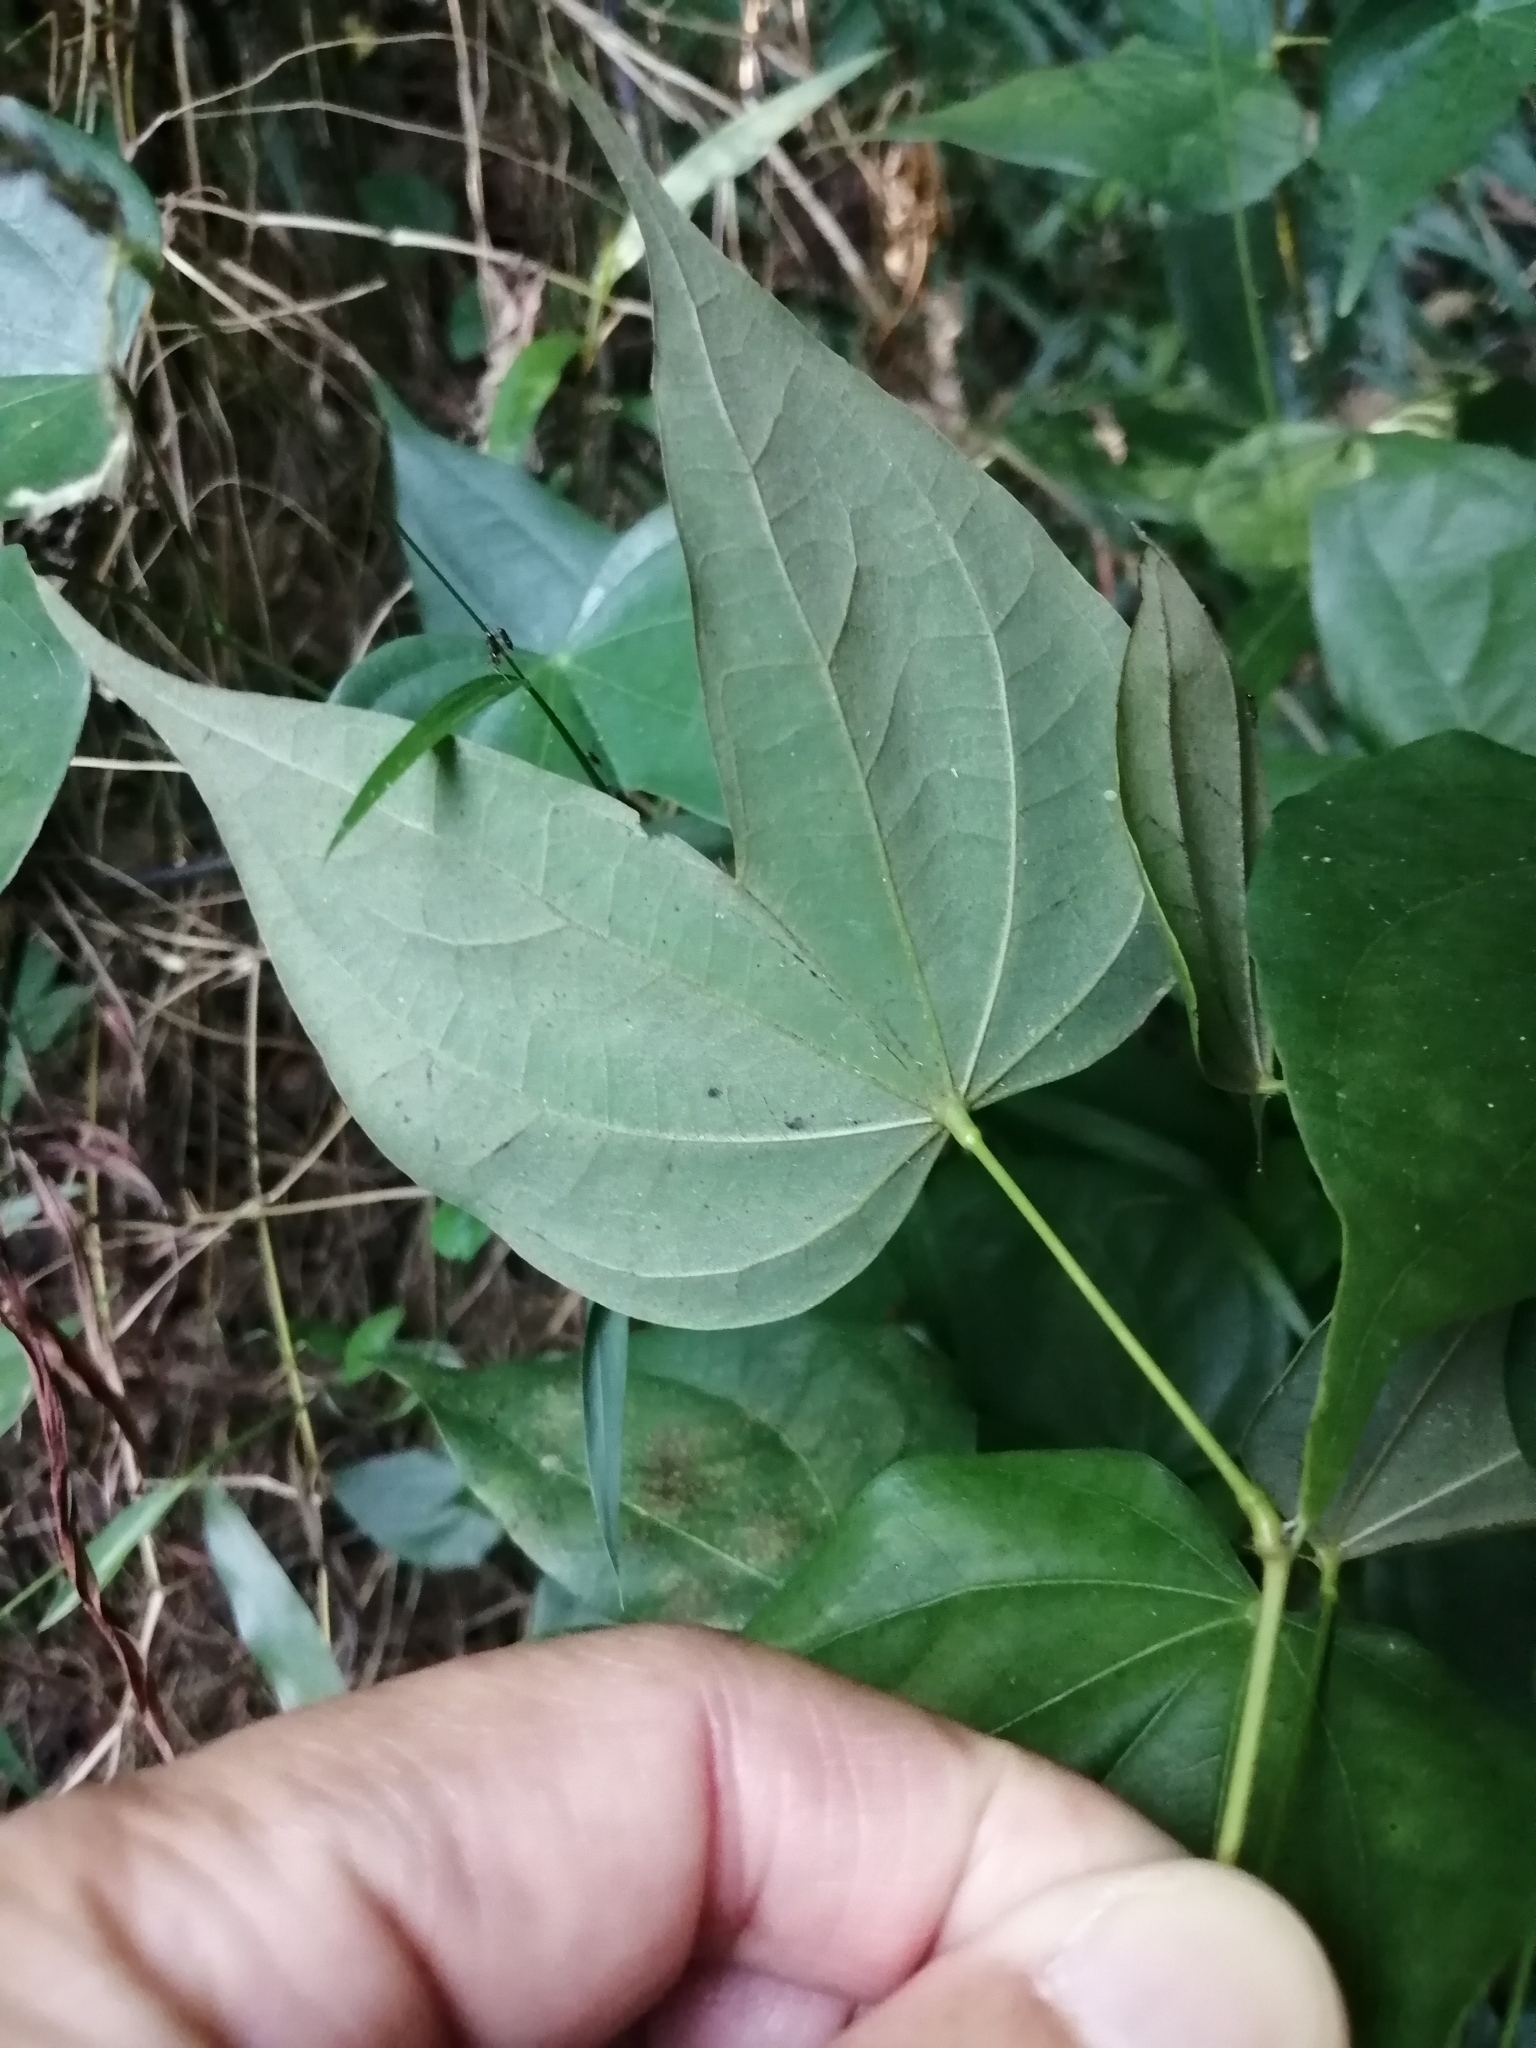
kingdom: Plantae
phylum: Tracheophyta
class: Magnoliopsida
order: Fabales
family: Fabaceae
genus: Phanera
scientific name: Phanera championii
